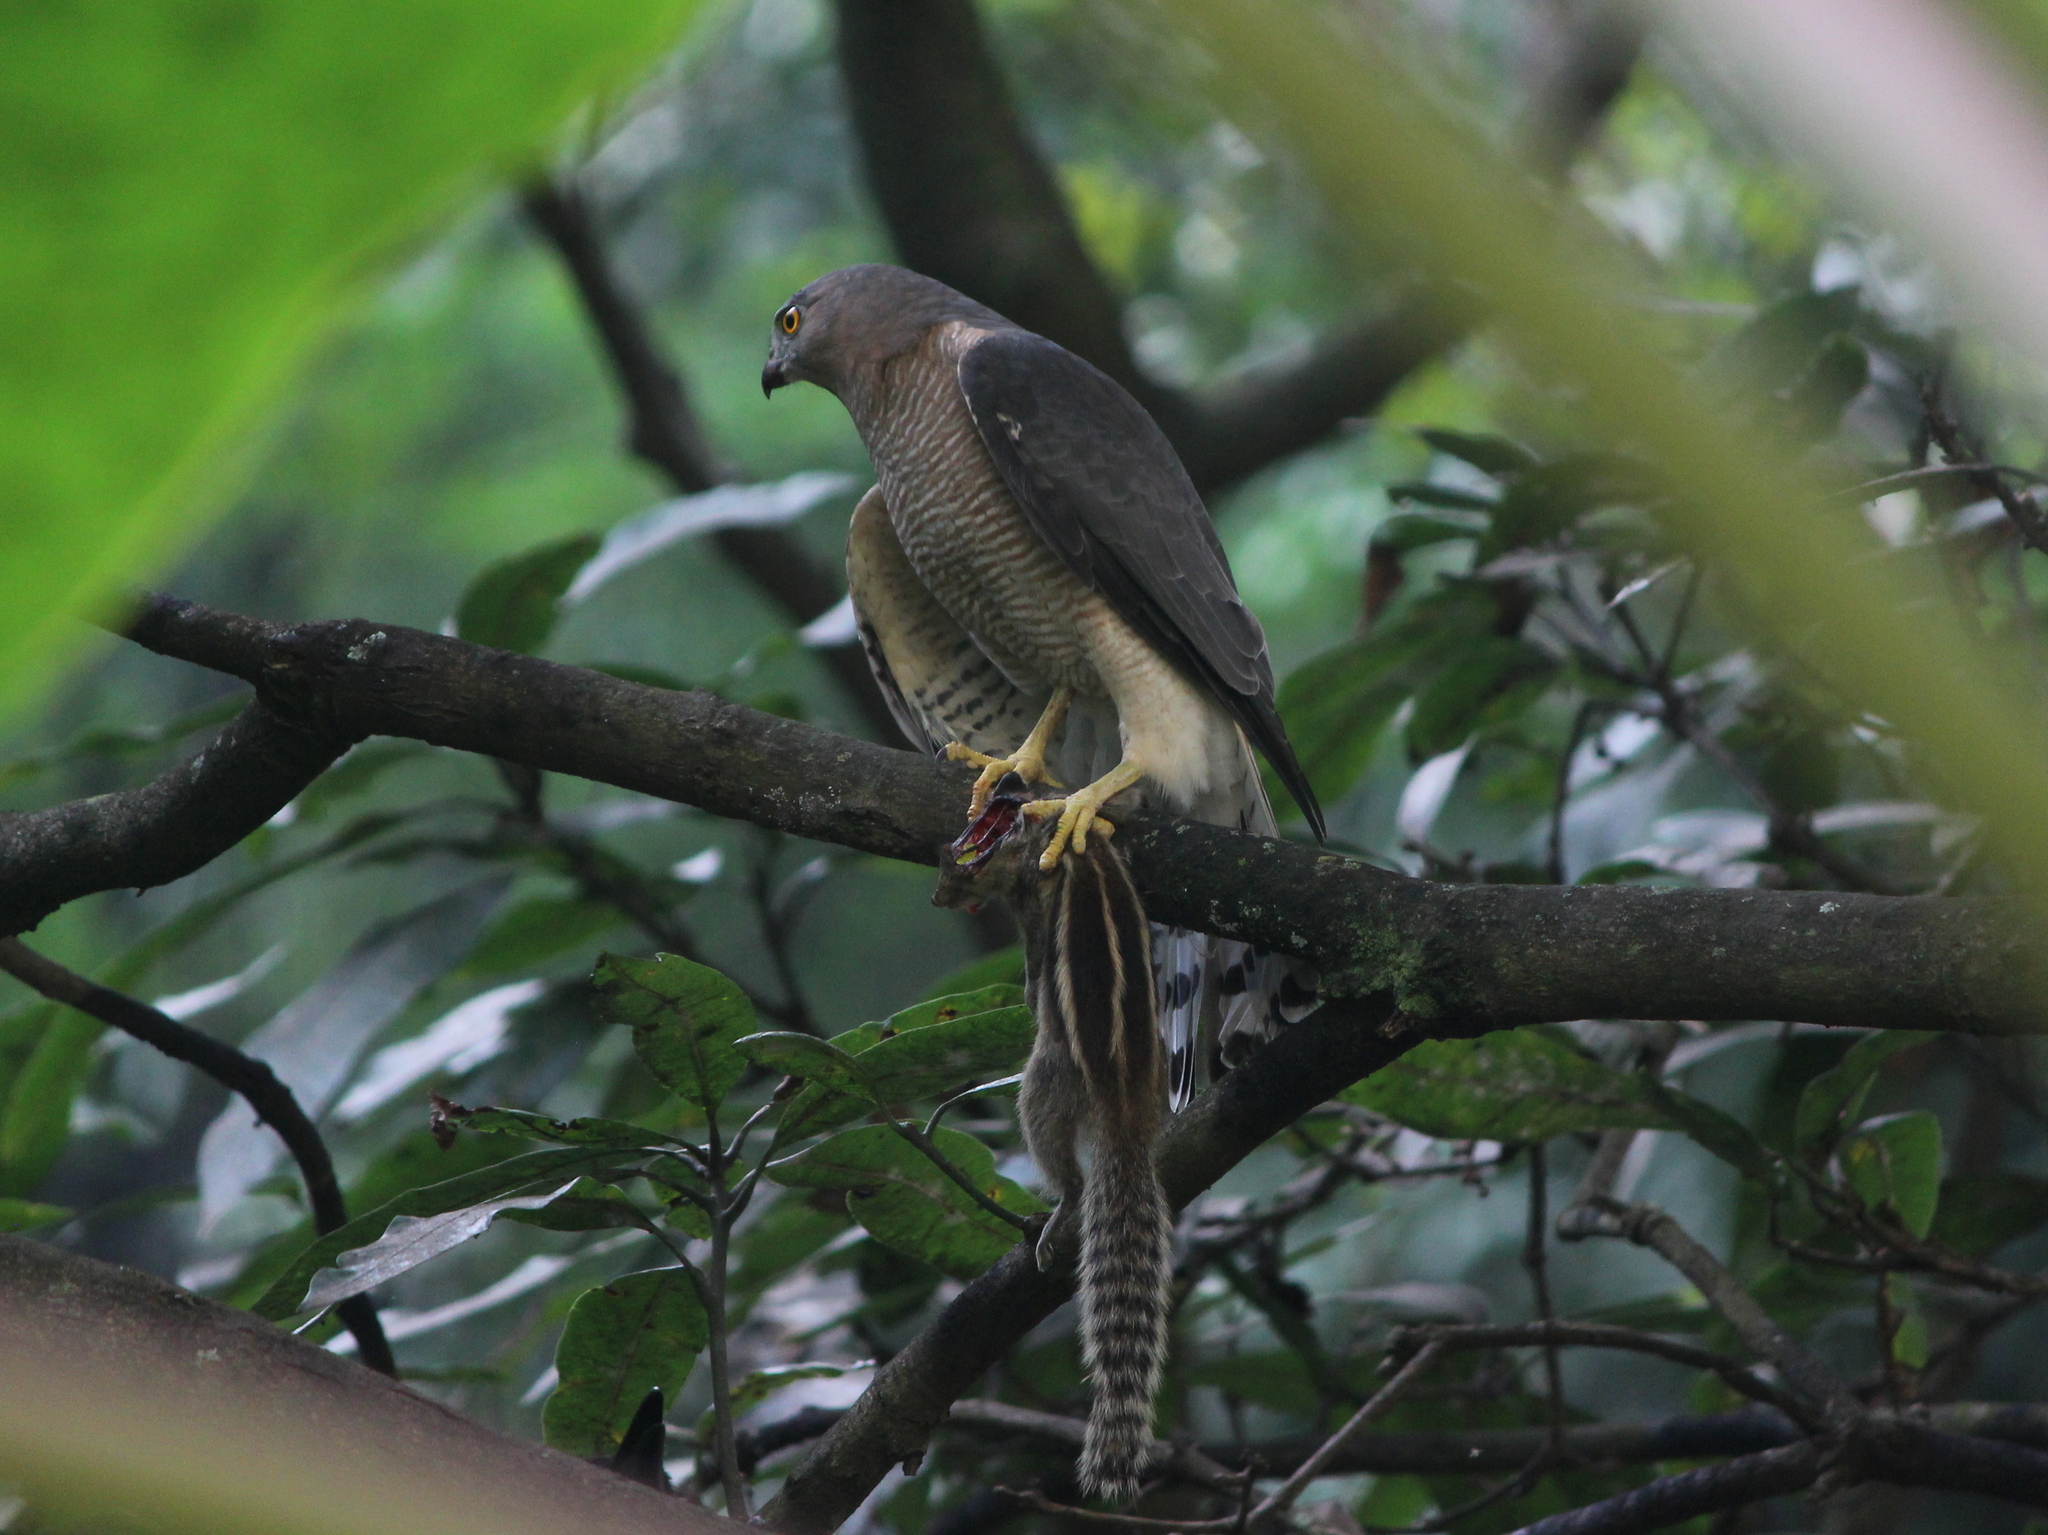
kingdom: Animalia
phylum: Chordata
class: Aves
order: Accipitriformes
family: Accipitridae
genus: Accipiter
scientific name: Accipiter badius
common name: Shikra
